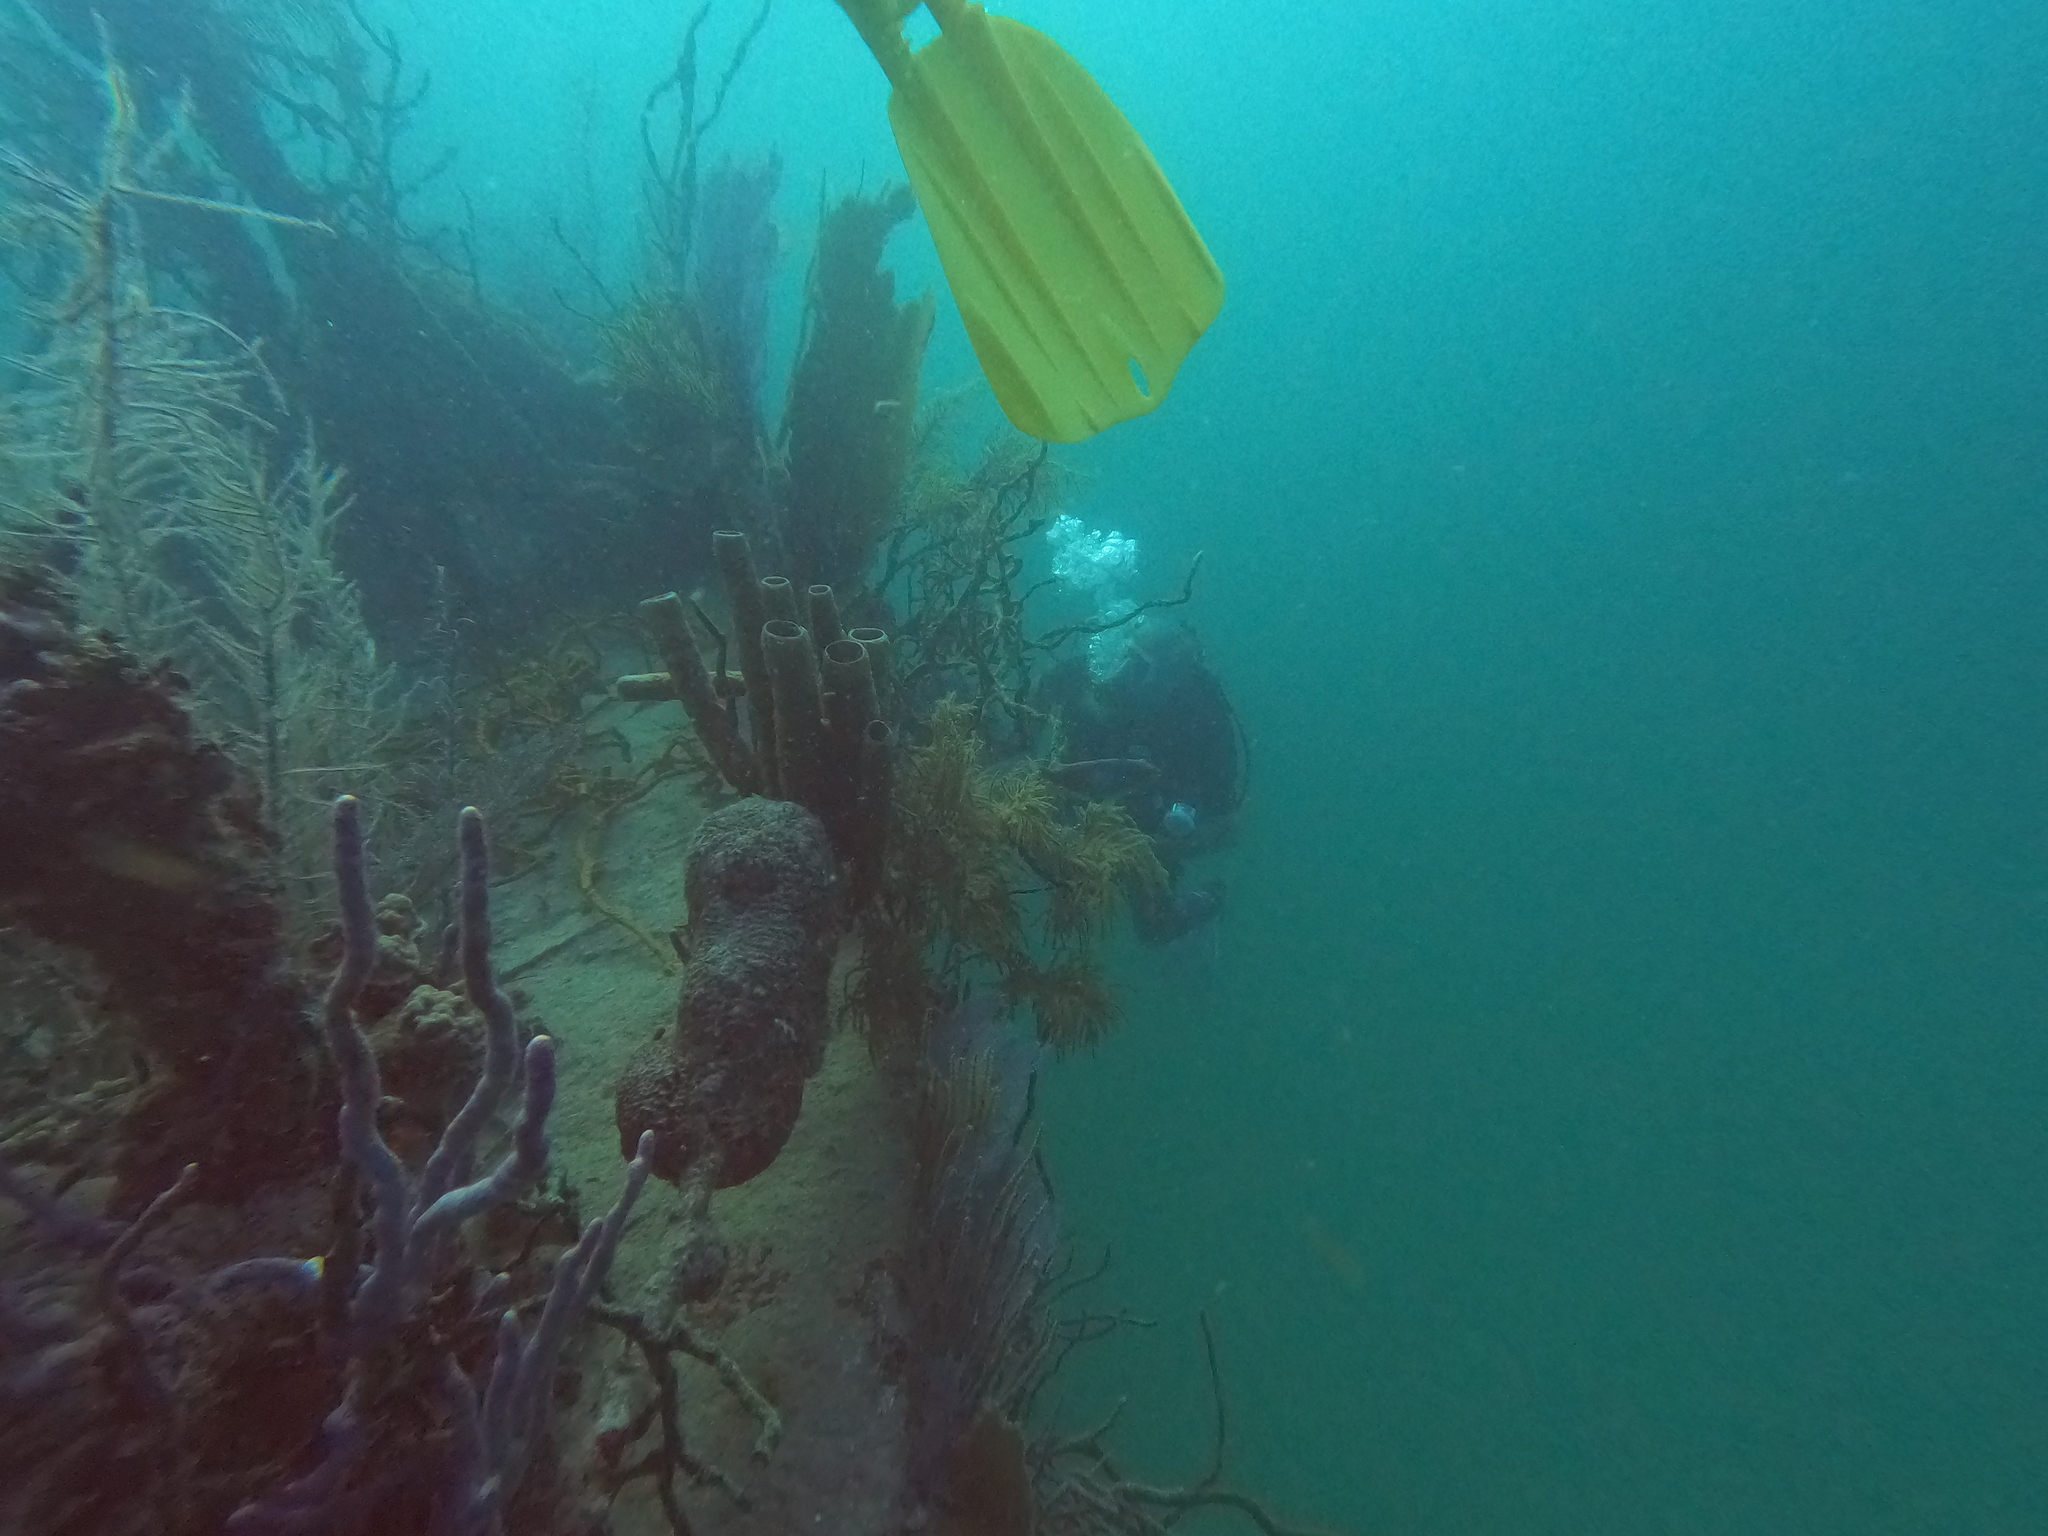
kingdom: Animalia
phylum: Porifera
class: Demospongiae
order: Verongiida
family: Aplysinidae
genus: Aplysina
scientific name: Aplysina cauliformis
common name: Branching candle sponge
